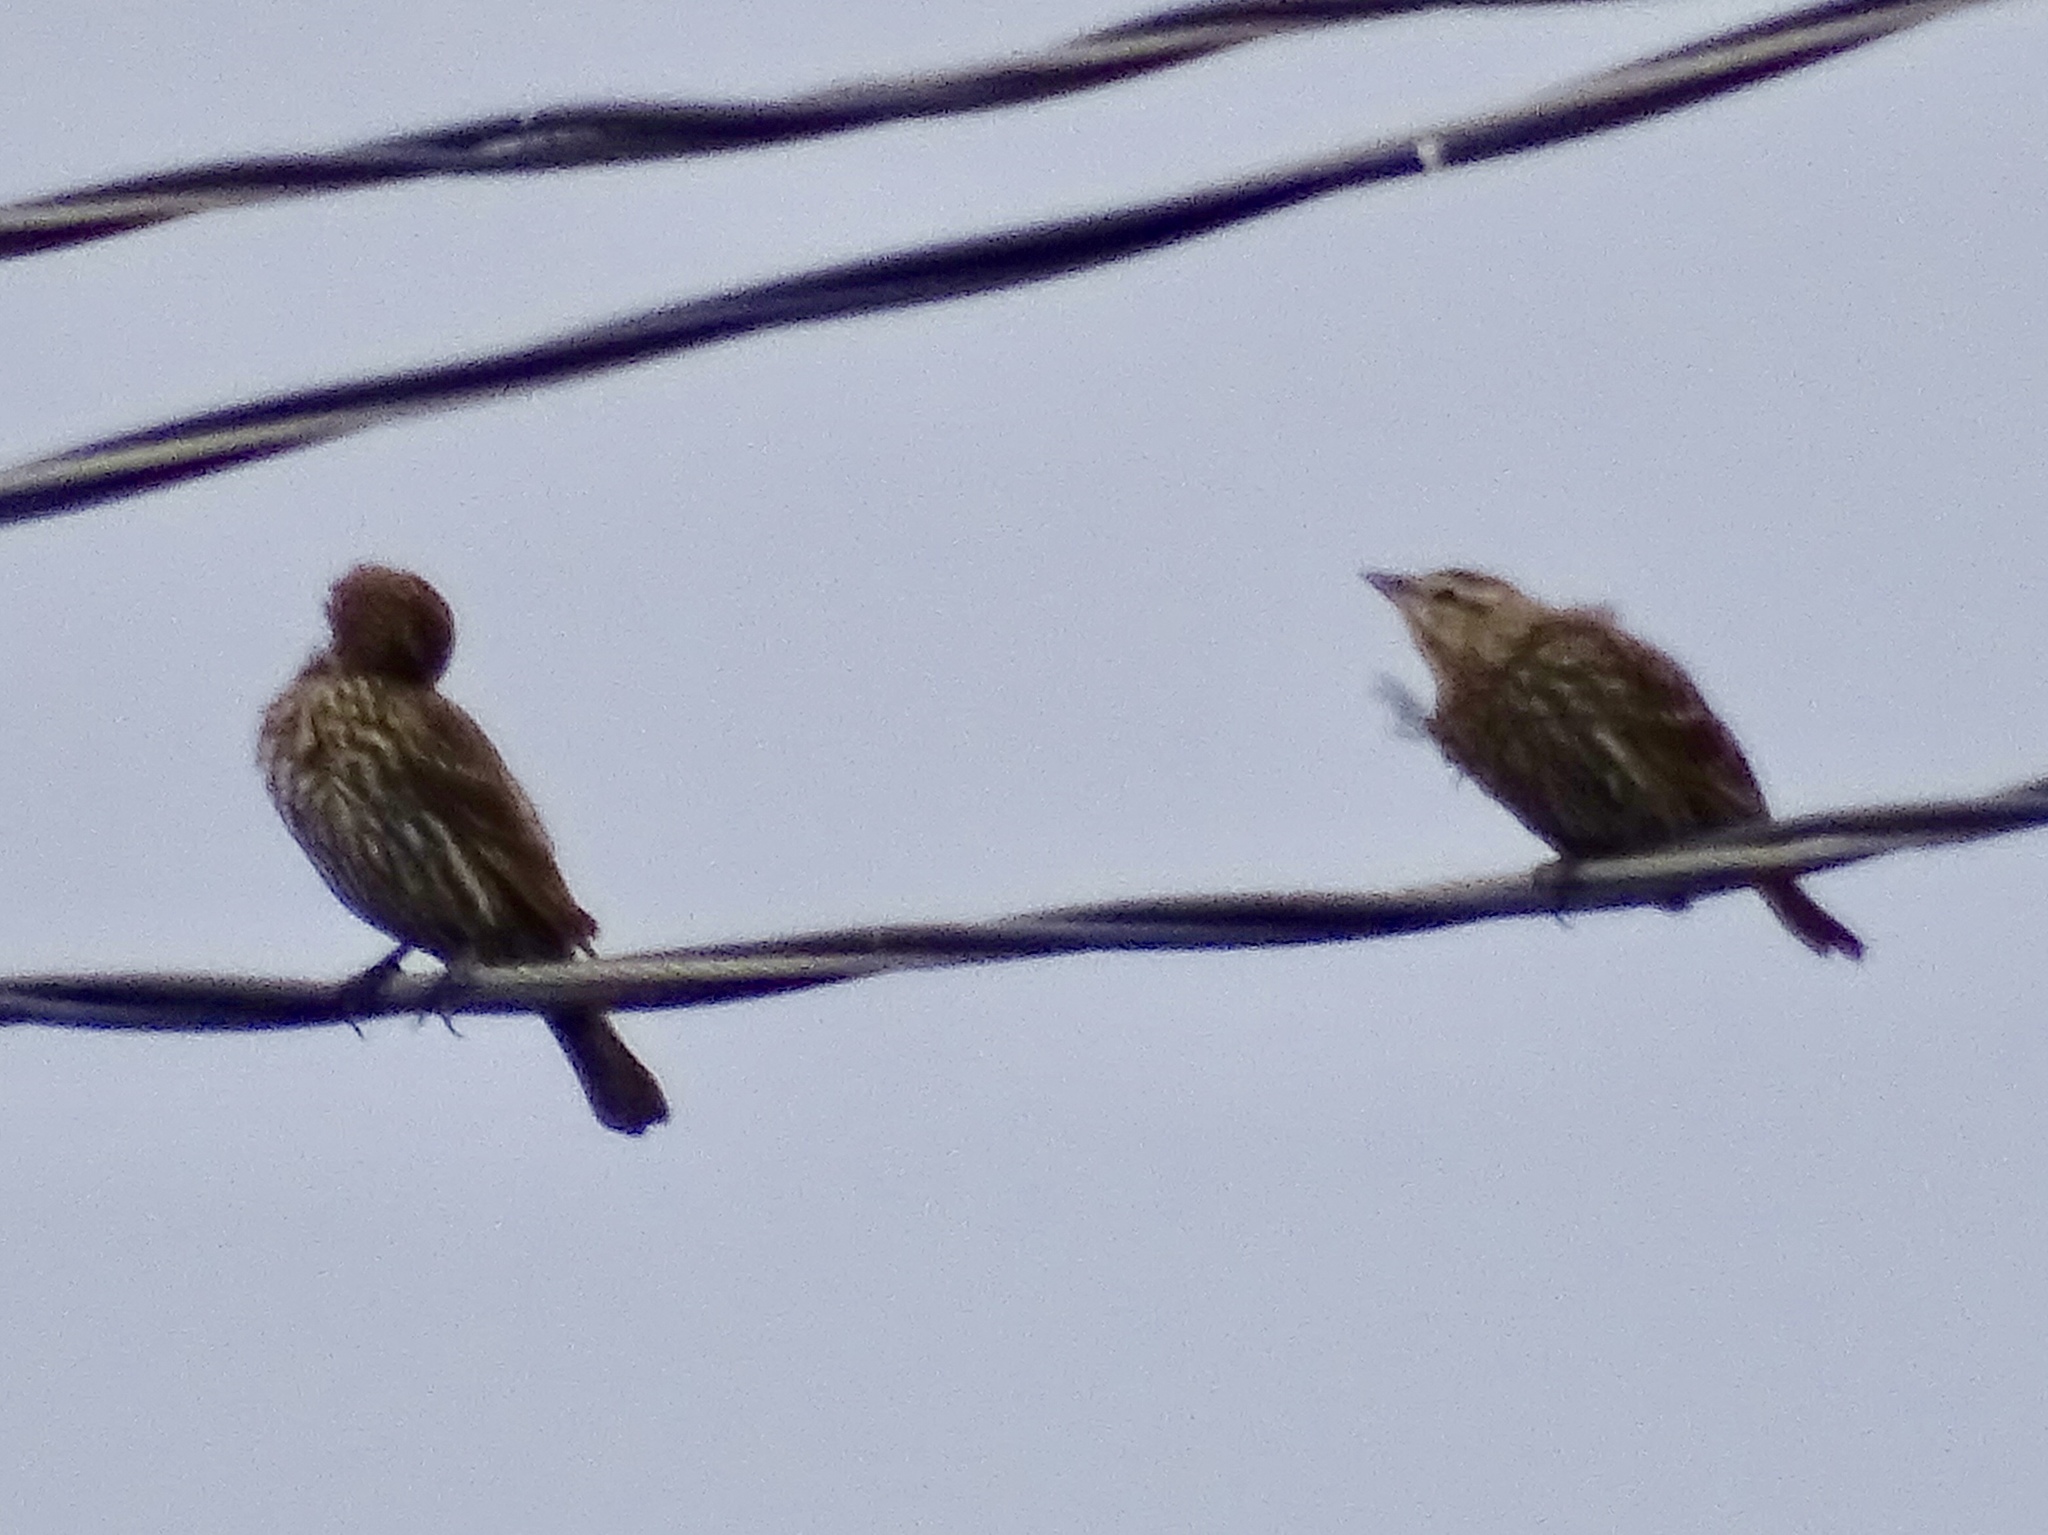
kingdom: Animalia
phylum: Chordata
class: Aves
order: Passeriformes
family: Icteridae
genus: Agelaius
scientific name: Agelaius phoeniceus
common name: Red-winged blackbird
